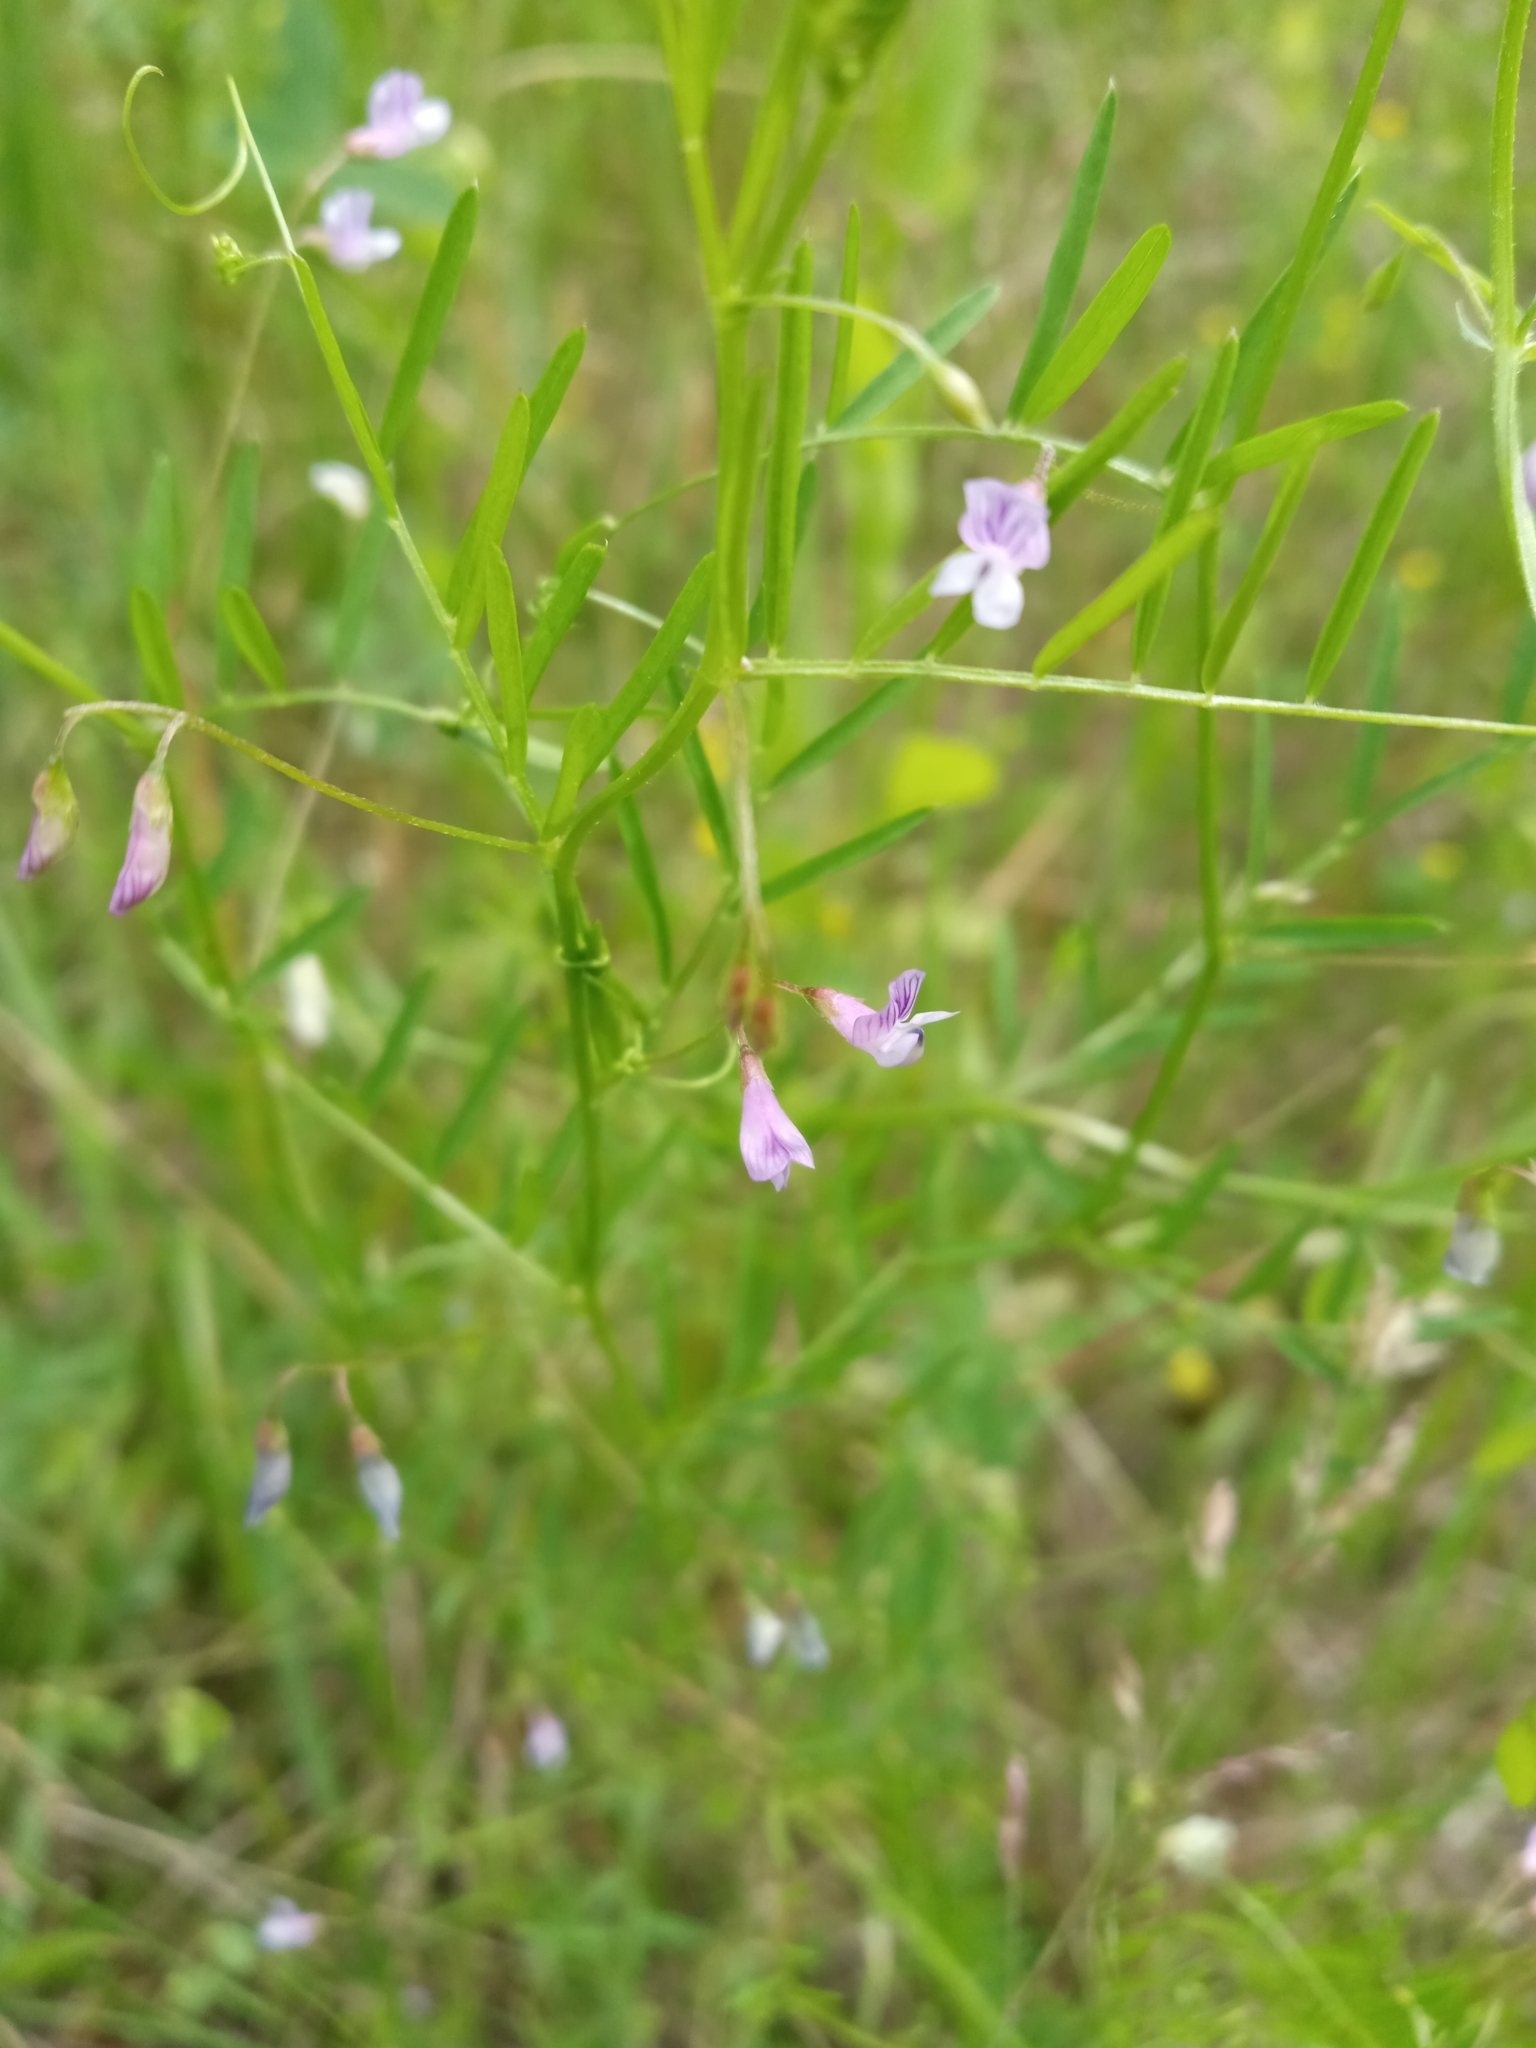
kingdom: Plantae
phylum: Tracheophyta
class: Magnoliopsida
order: Fabales
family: Fabaceae
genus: Vicia
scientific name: Vicia tetrasperma
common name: Smooth tare
